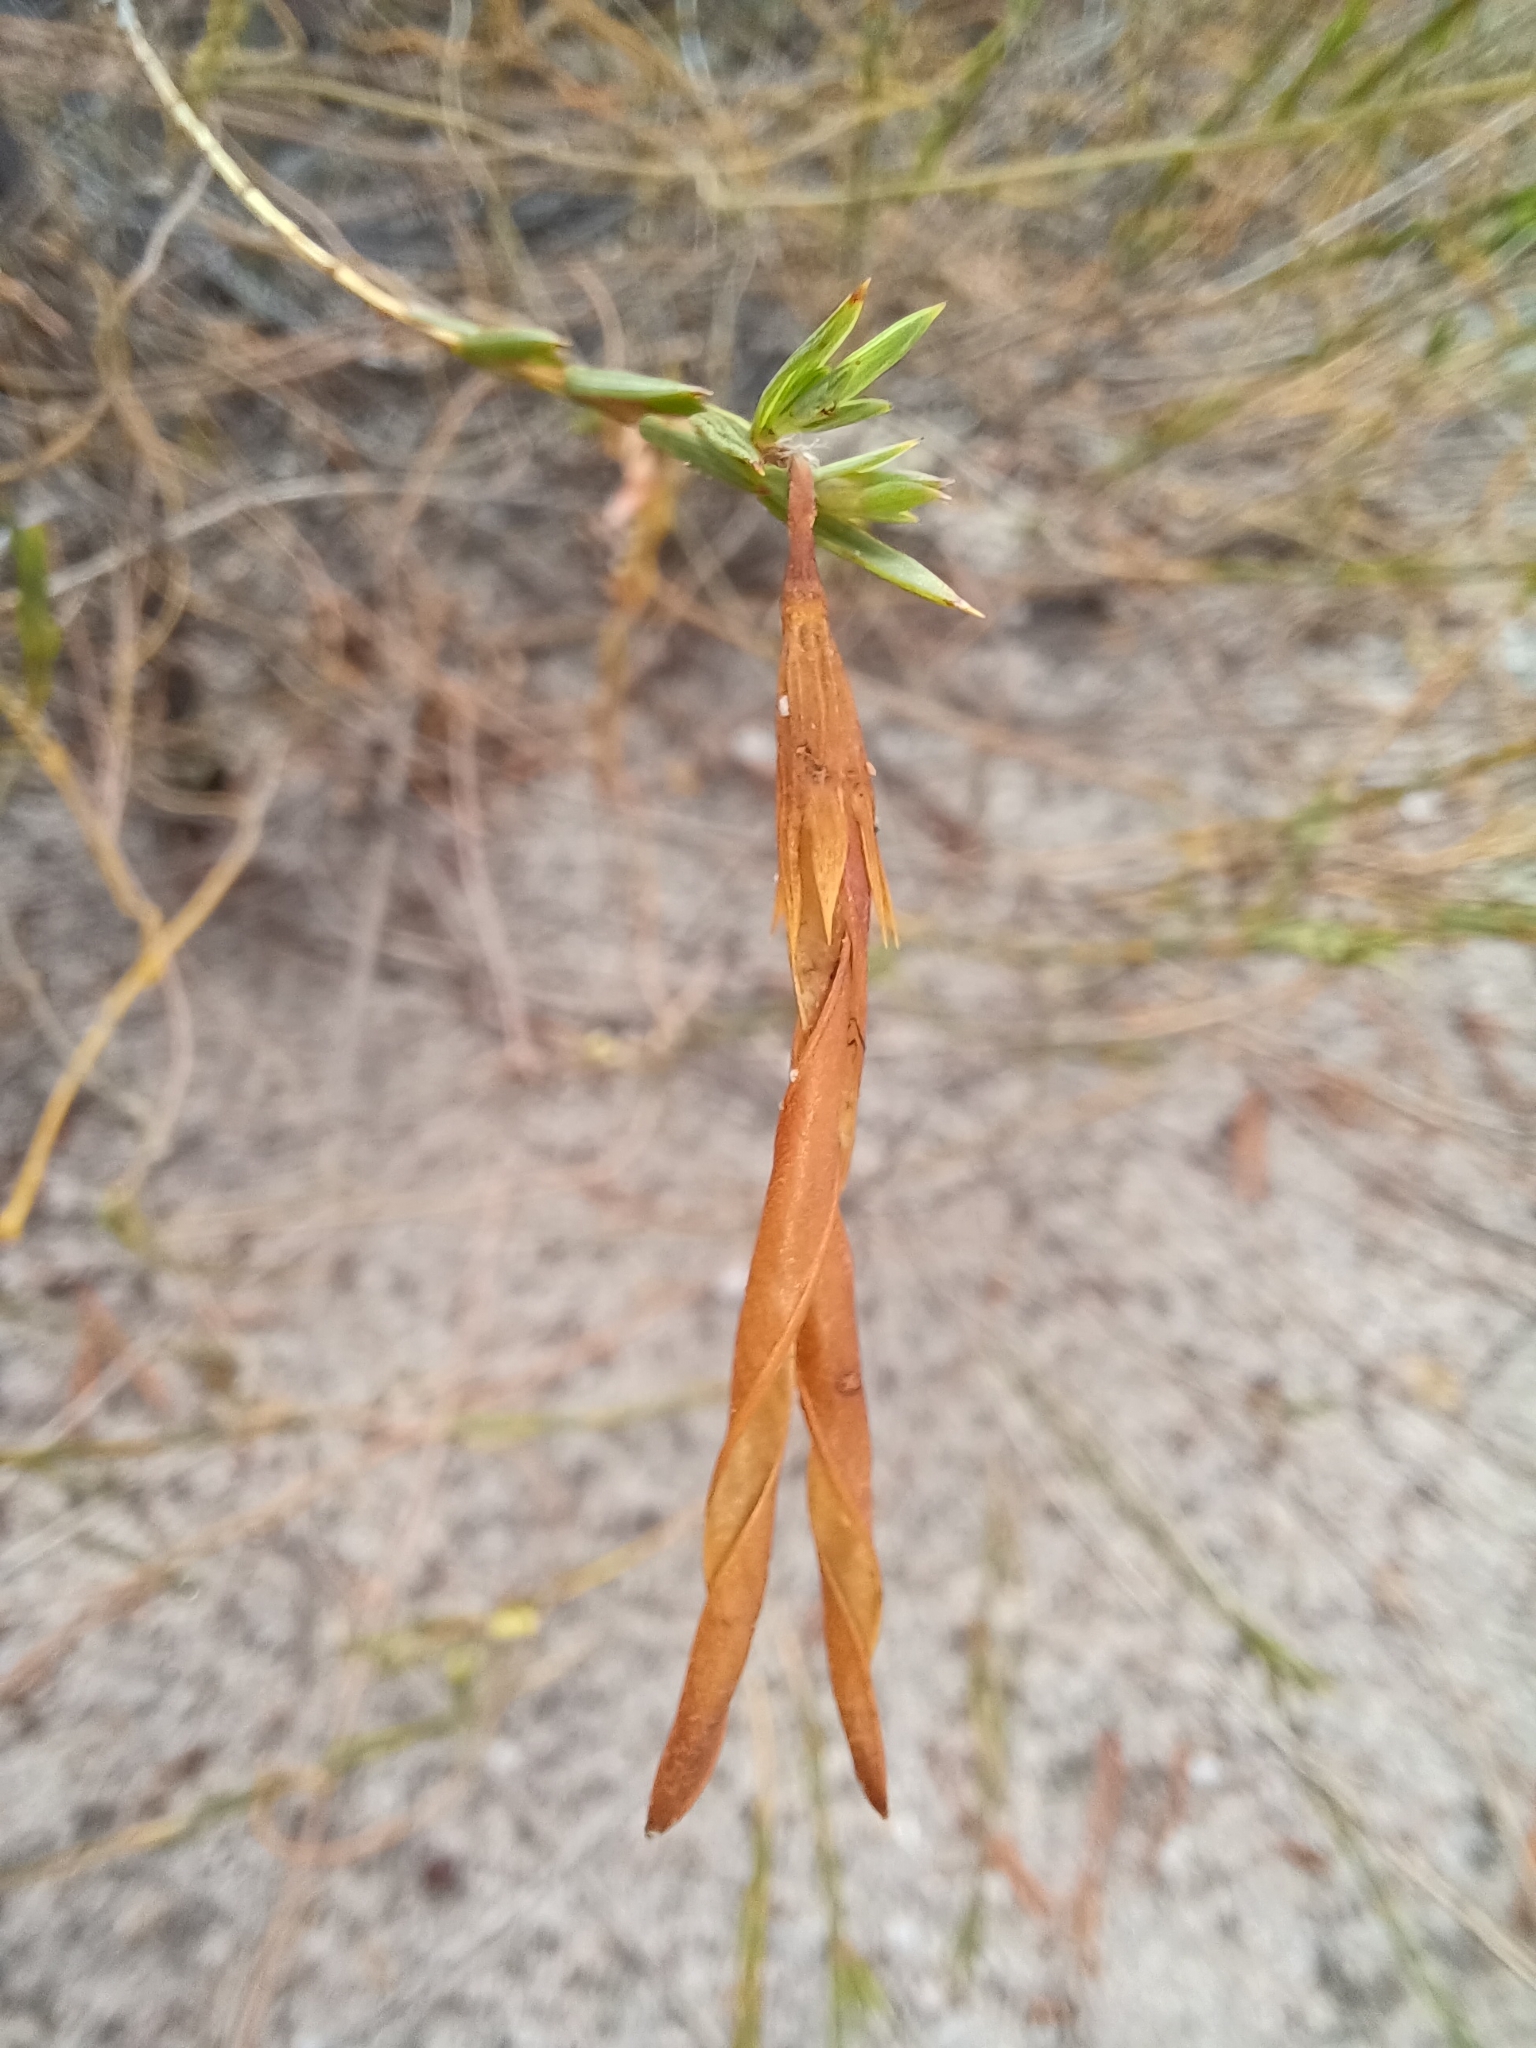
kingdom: Plantae
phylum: Tracheophyta
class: Magnoliopsida
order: Fabales
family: Fabaceae
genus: Aspalathus
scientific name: Aspalathus angustifolia
